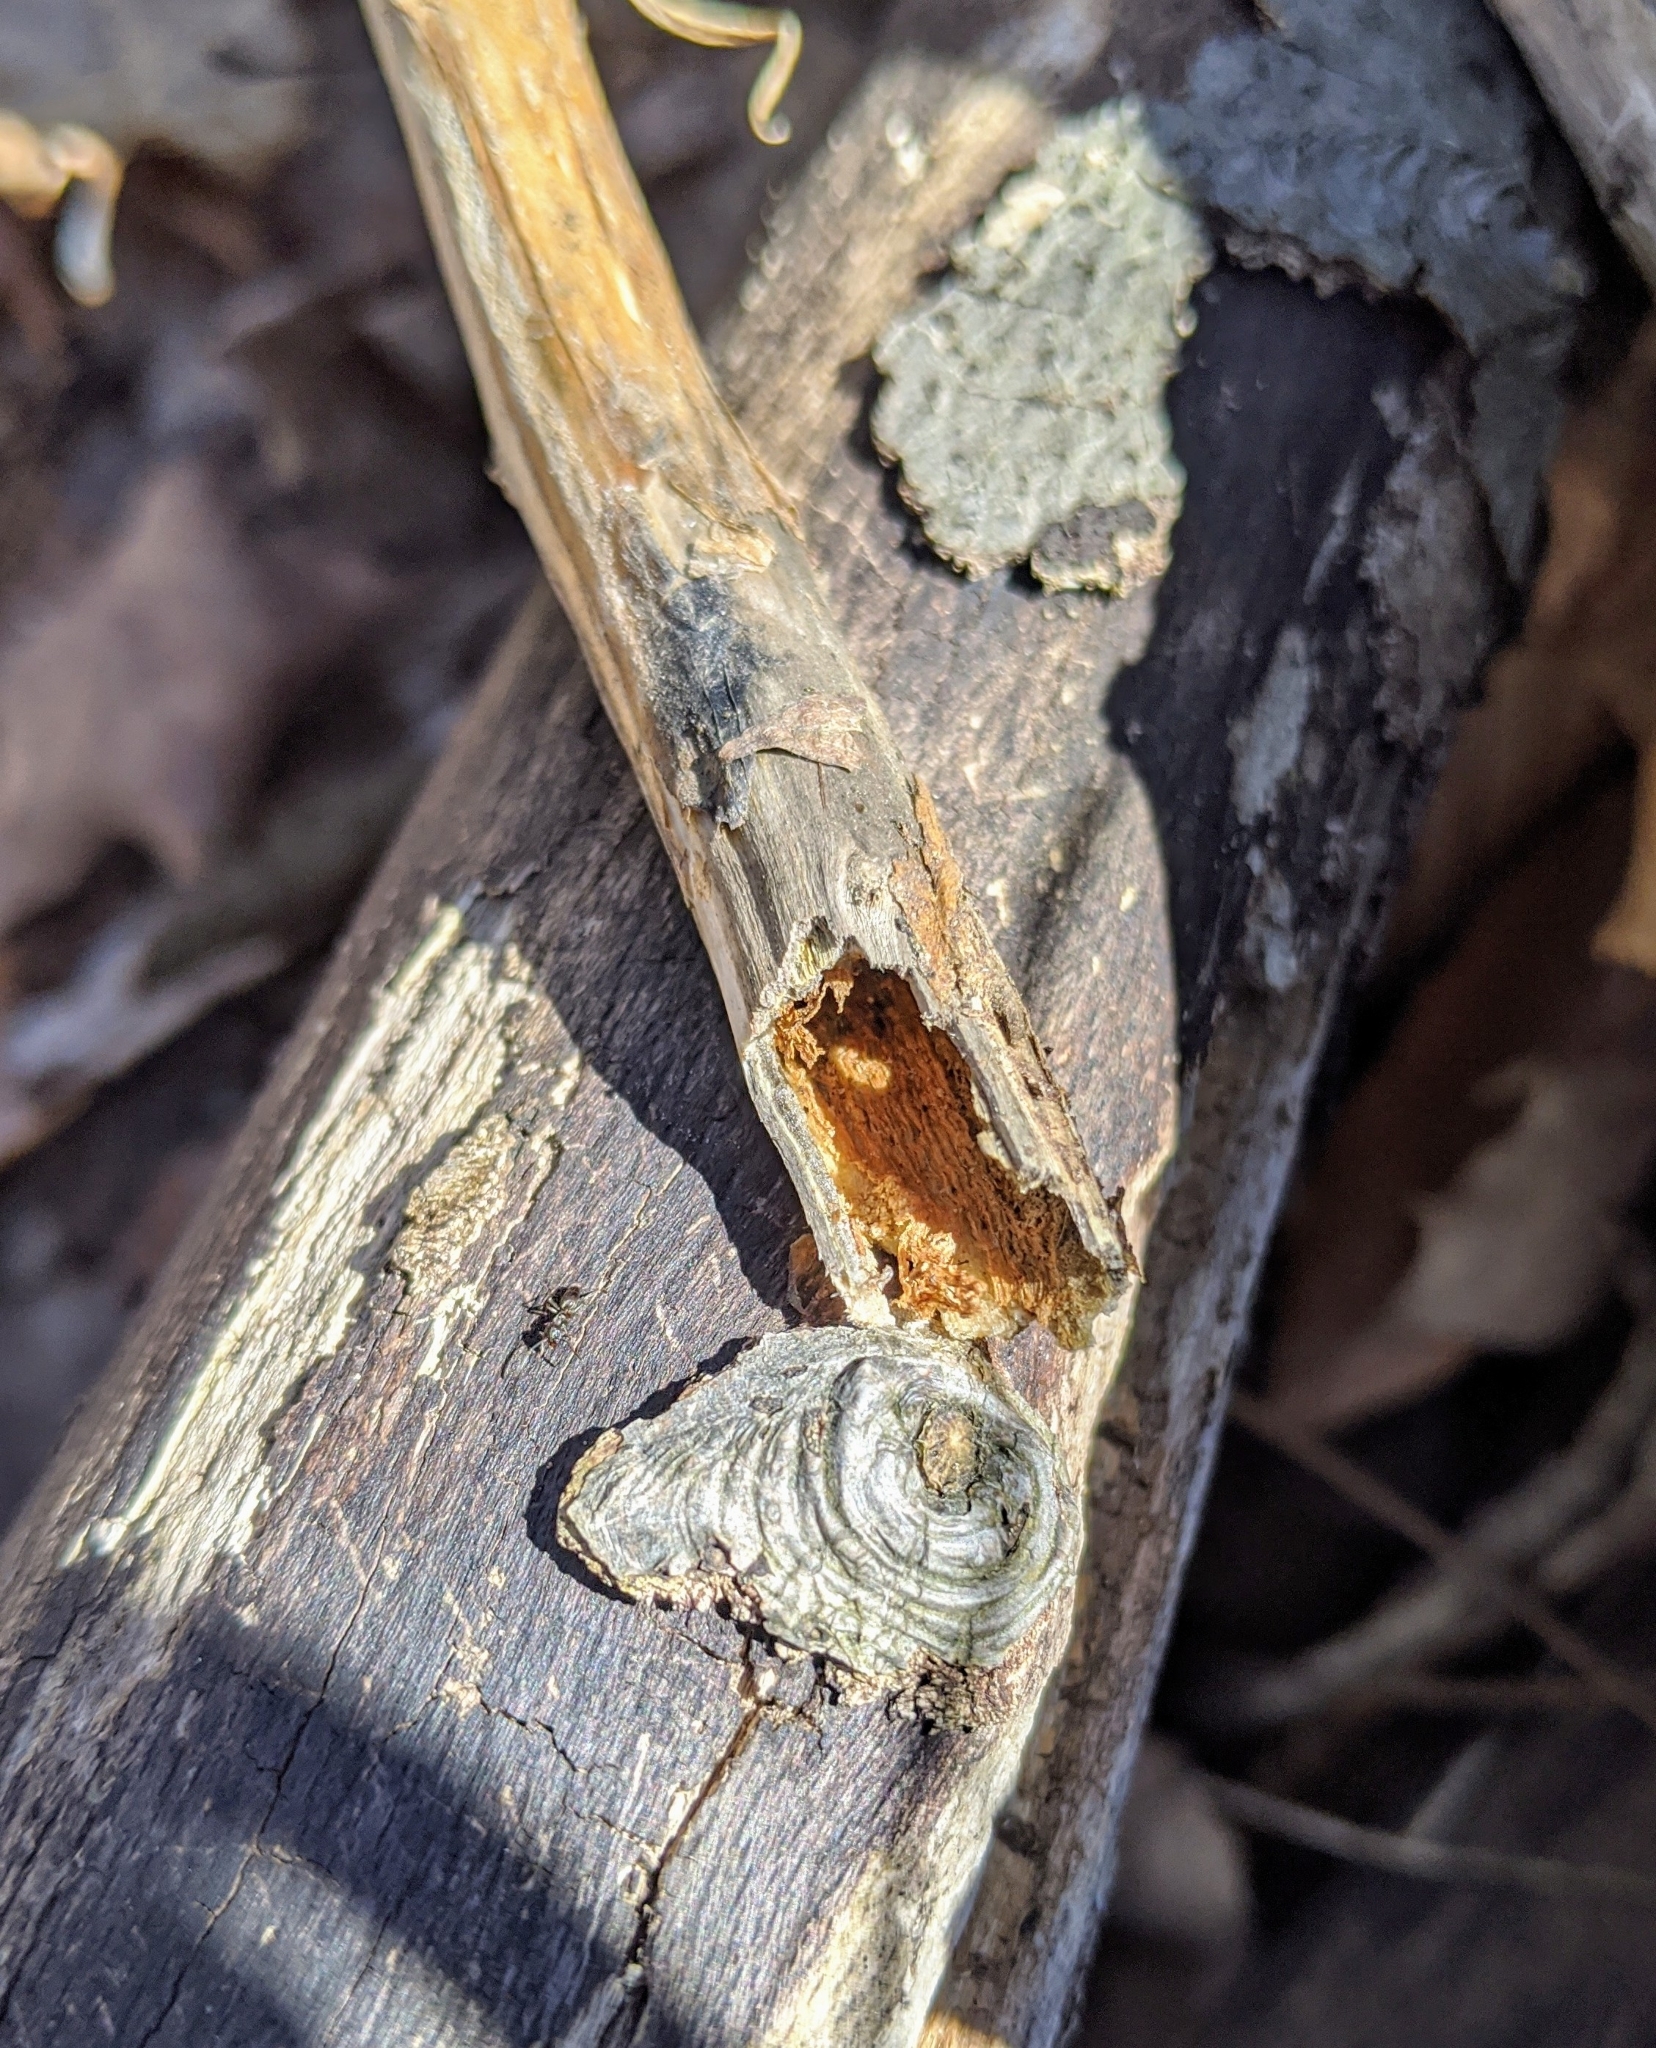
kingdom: Animalia
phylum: Arthropoda
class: Insecta
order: Hymenoptera
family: Formicidae
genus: Tapinoma
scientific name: Tapinoma sessile
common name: Odorous house ant
